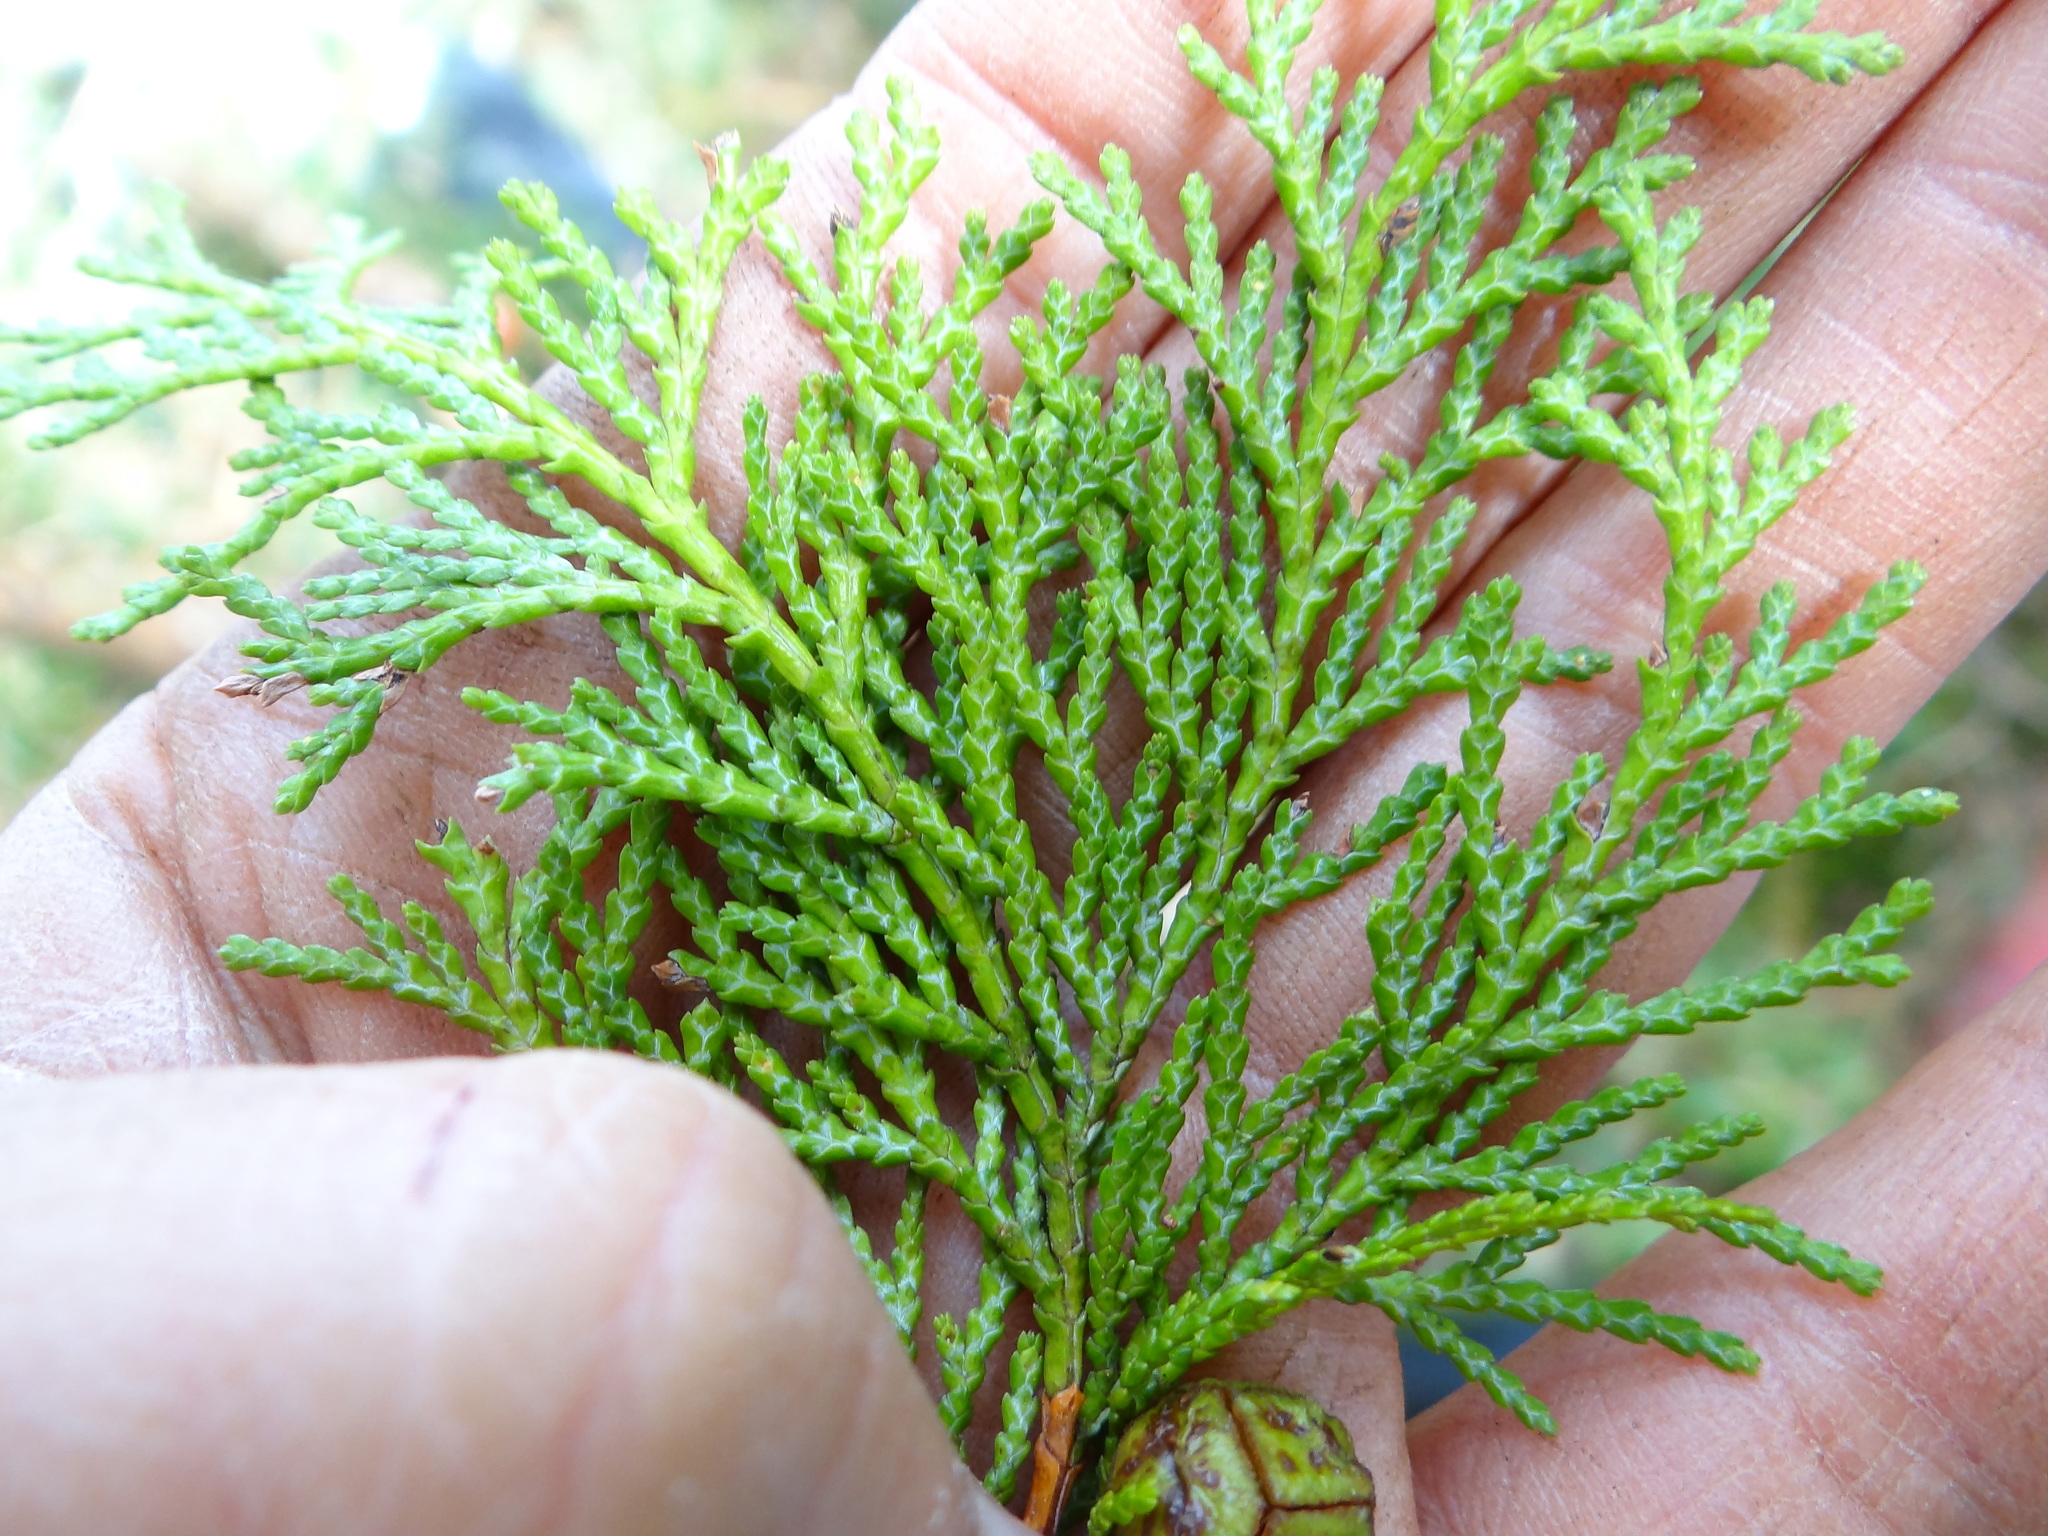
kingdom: Plantae
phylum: Tracheophyta
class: Pinopsida
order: Pinales
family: Cupressaceae
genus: Chamaecyparis
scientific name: Chamaecyparis obtusa
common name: Hinoki false cypress
